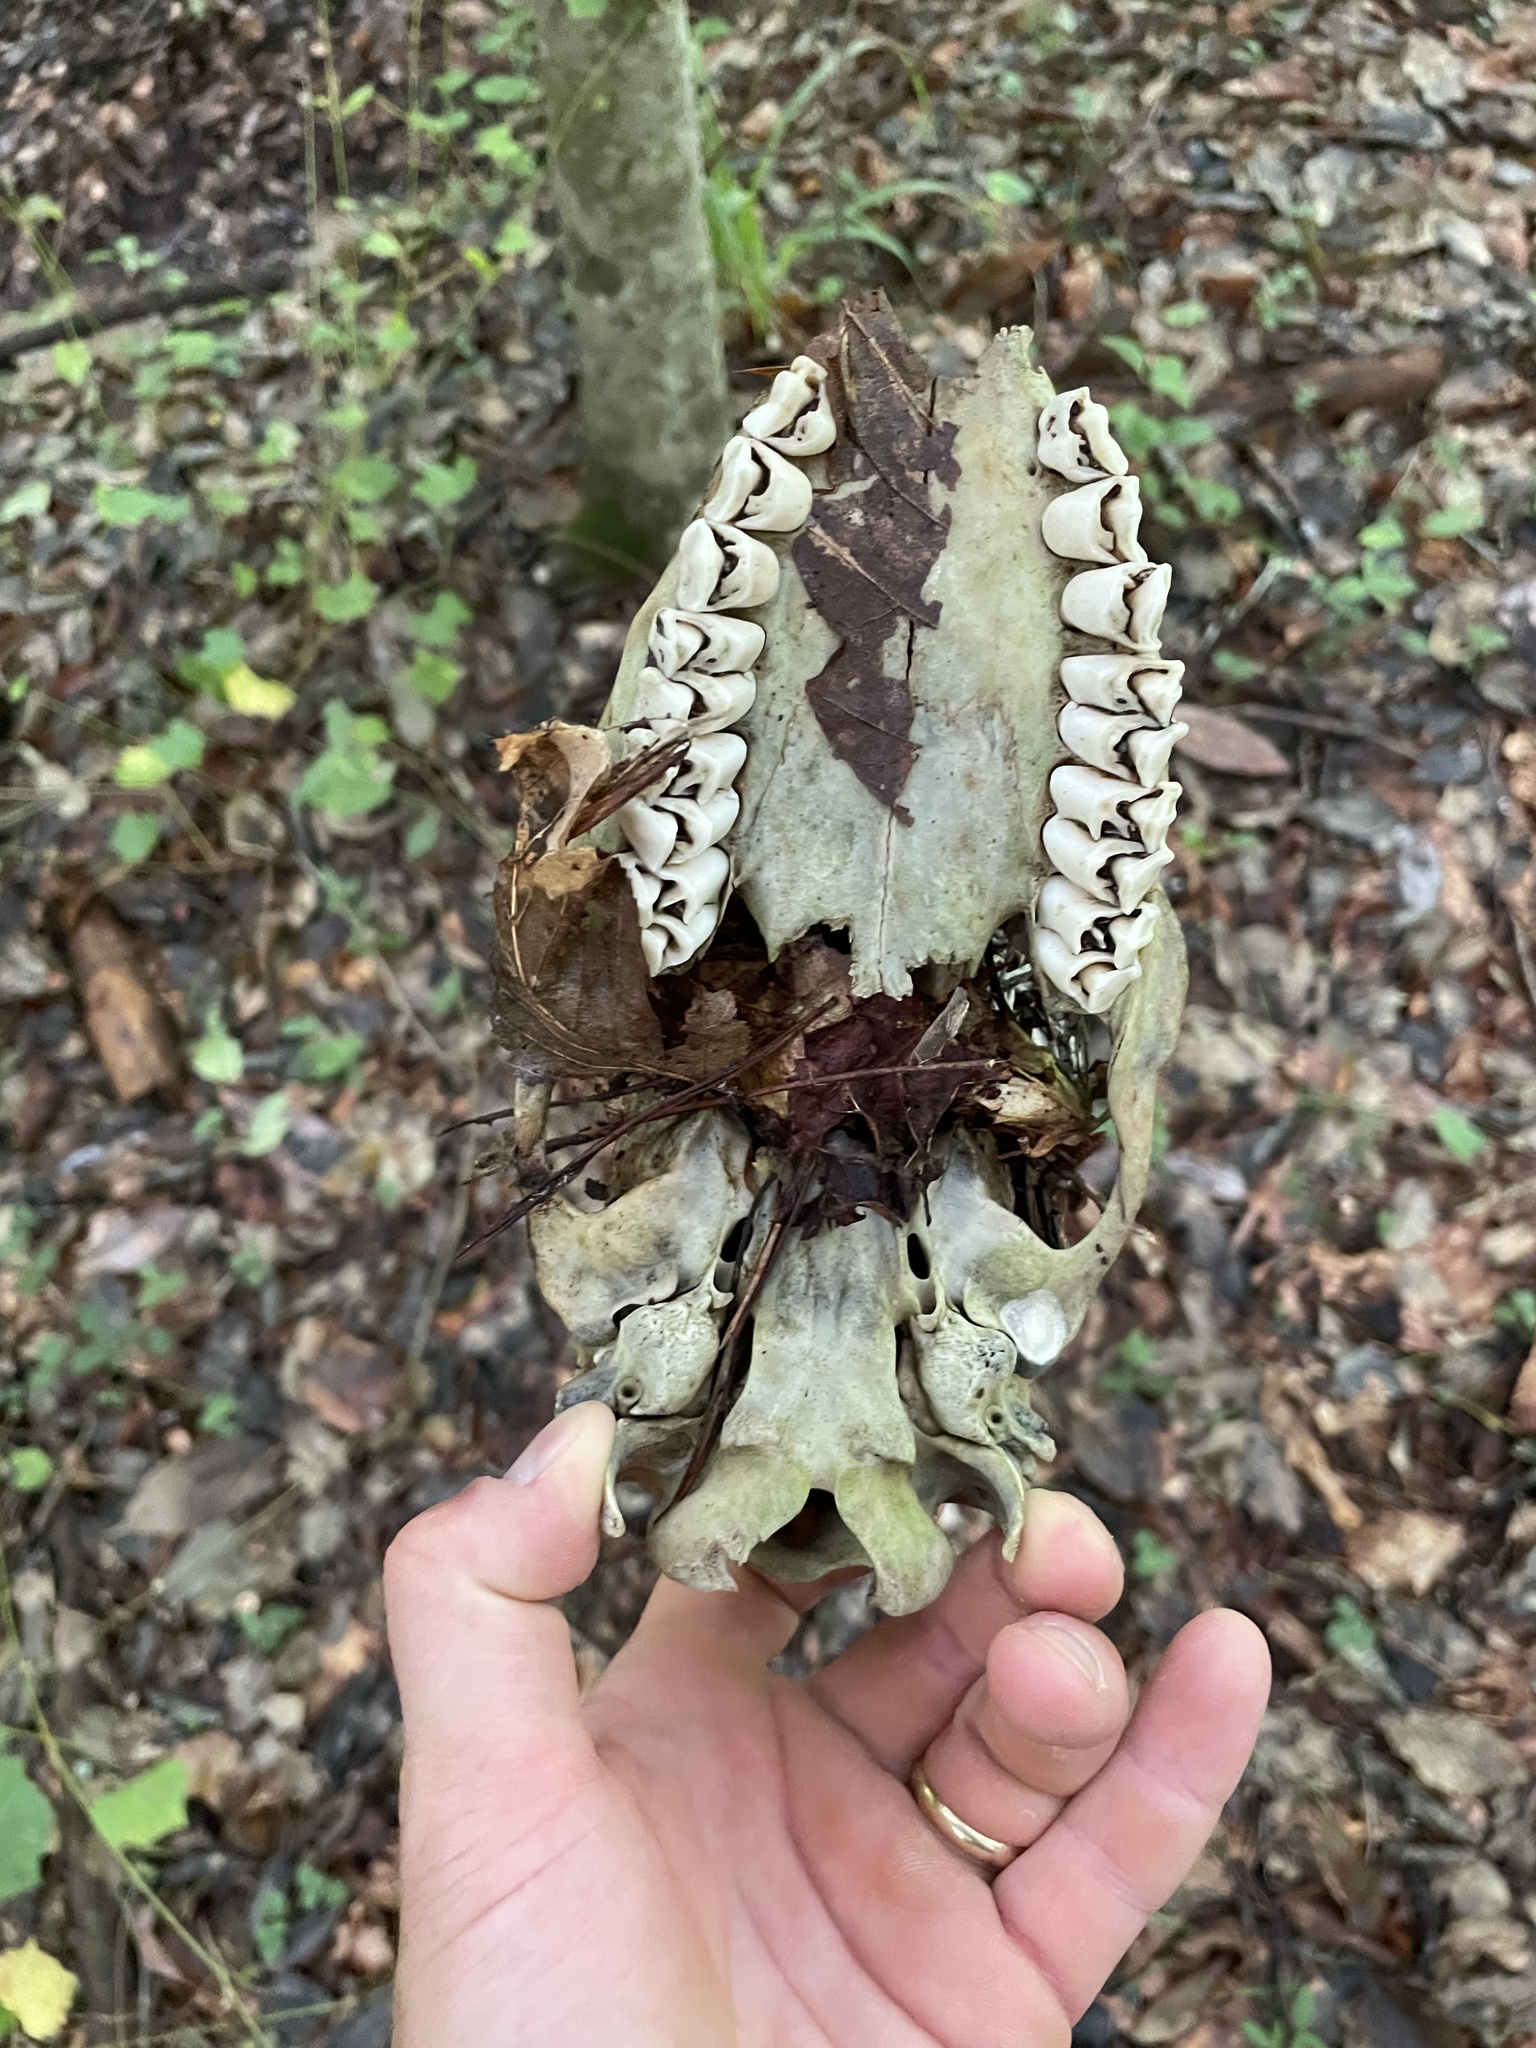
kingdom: Animalia
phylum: Chordata
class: Mammalia
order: Artiodactyla
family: Cervidae
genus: Odocoileus
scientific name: Odocoileus virginianus
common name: White-tailed deer
